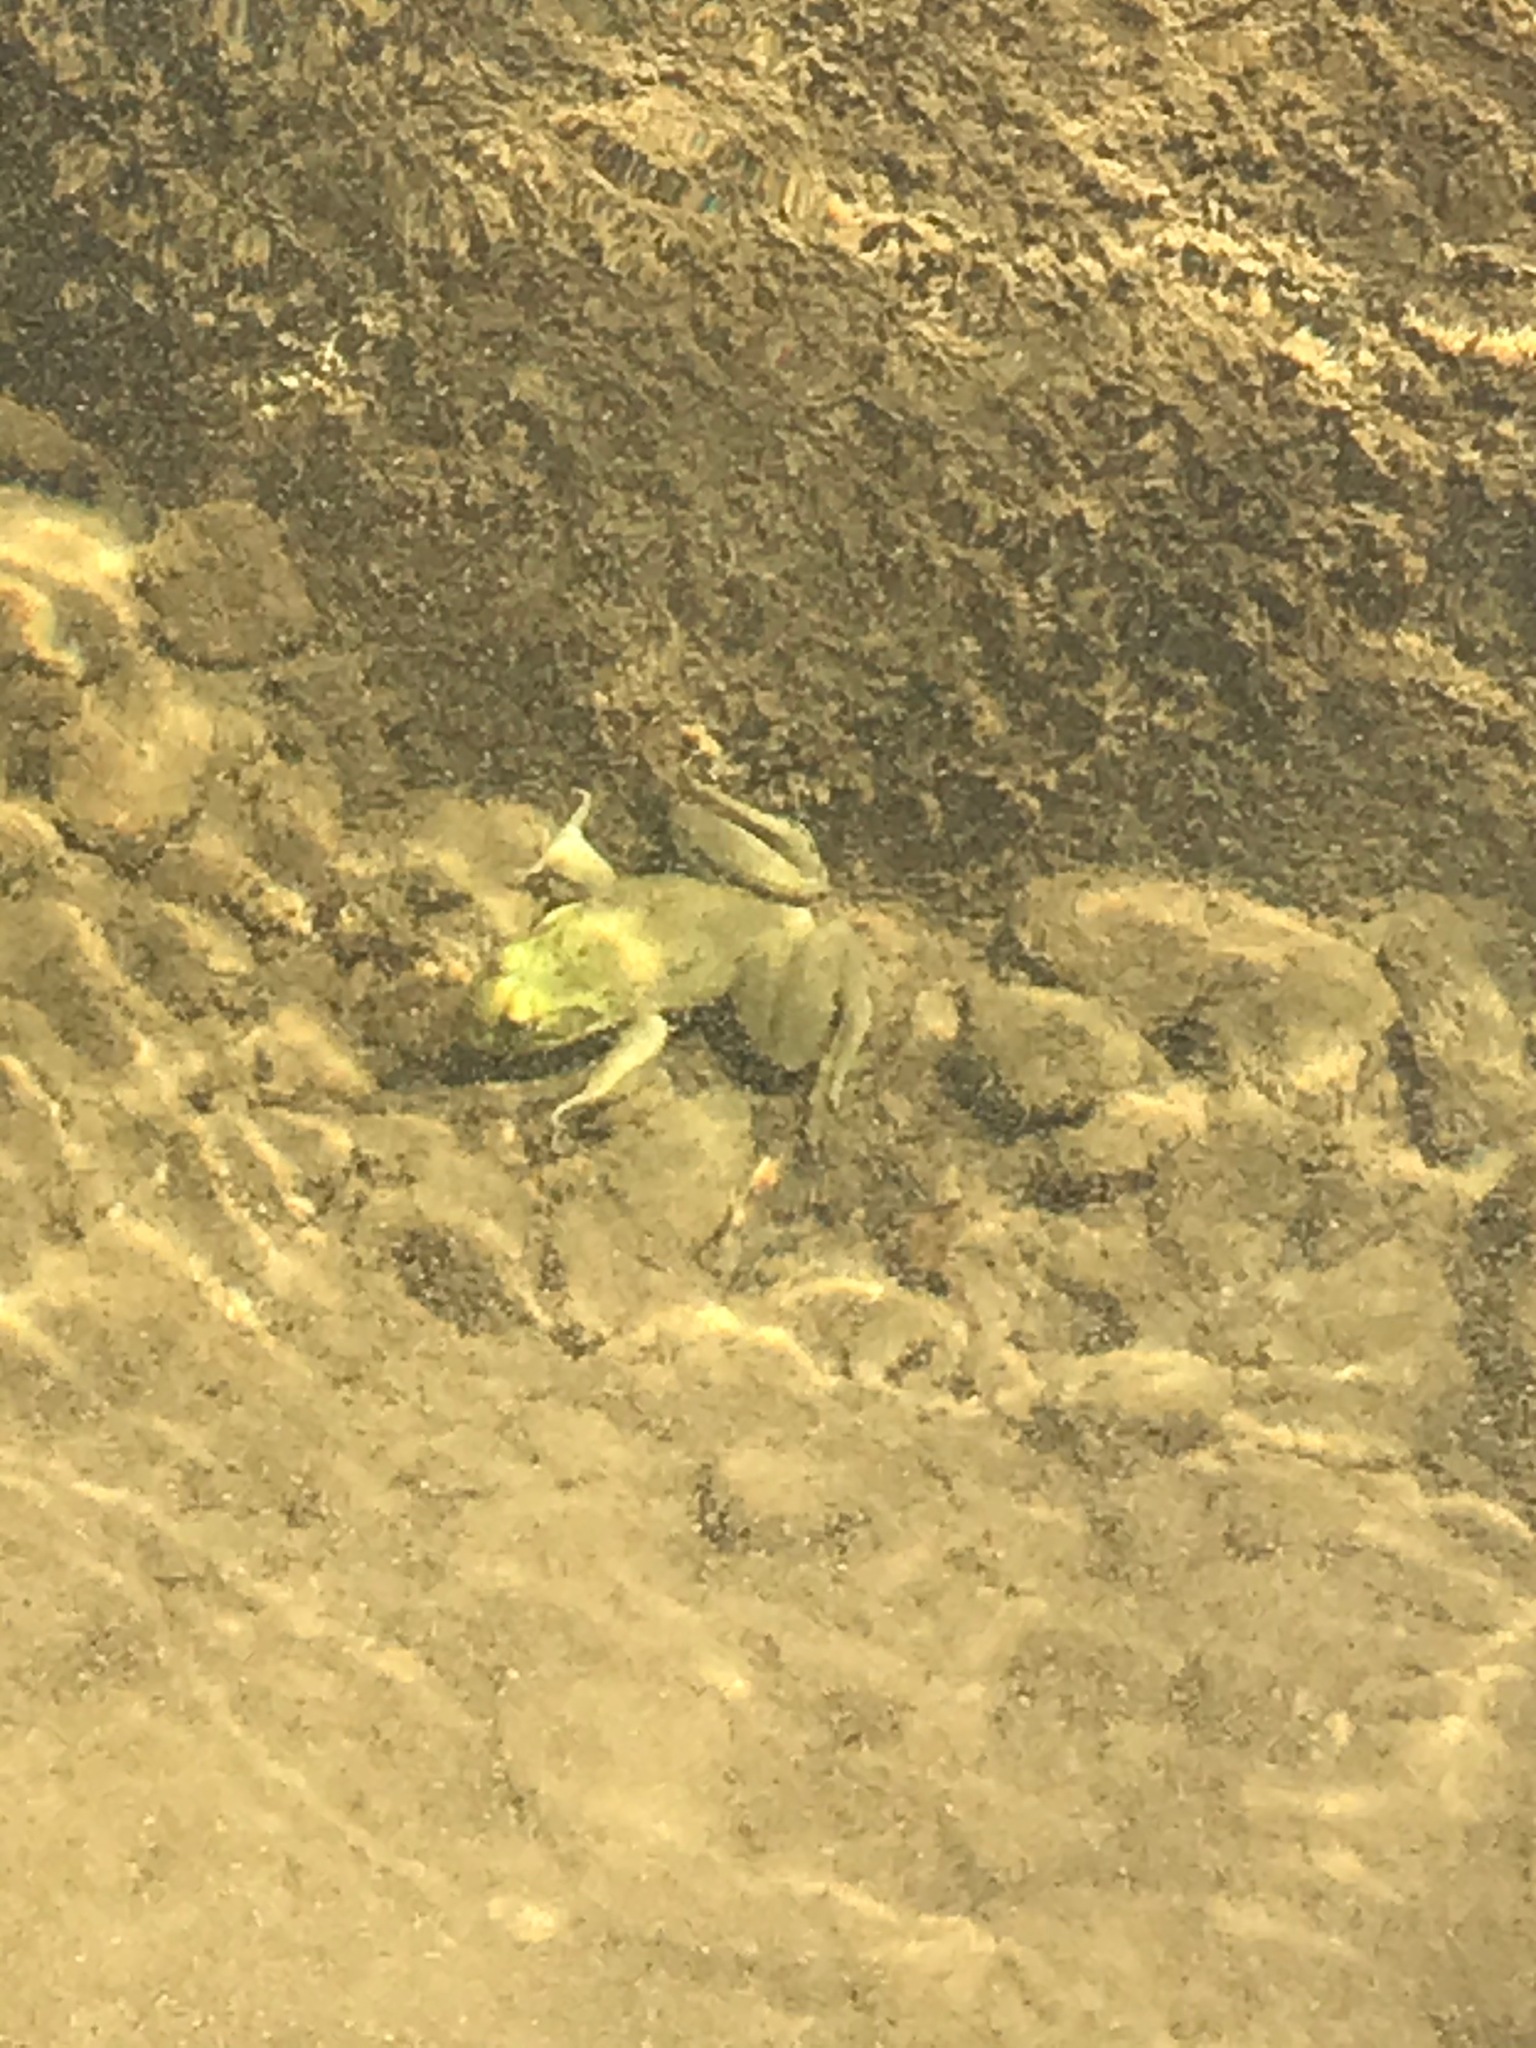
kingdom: Animalia
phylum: Chordata
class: Amphibia
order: Anura
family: Ranidae
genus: Lithobates
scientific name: Lithobates catesbeianus
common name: American bullfrog
